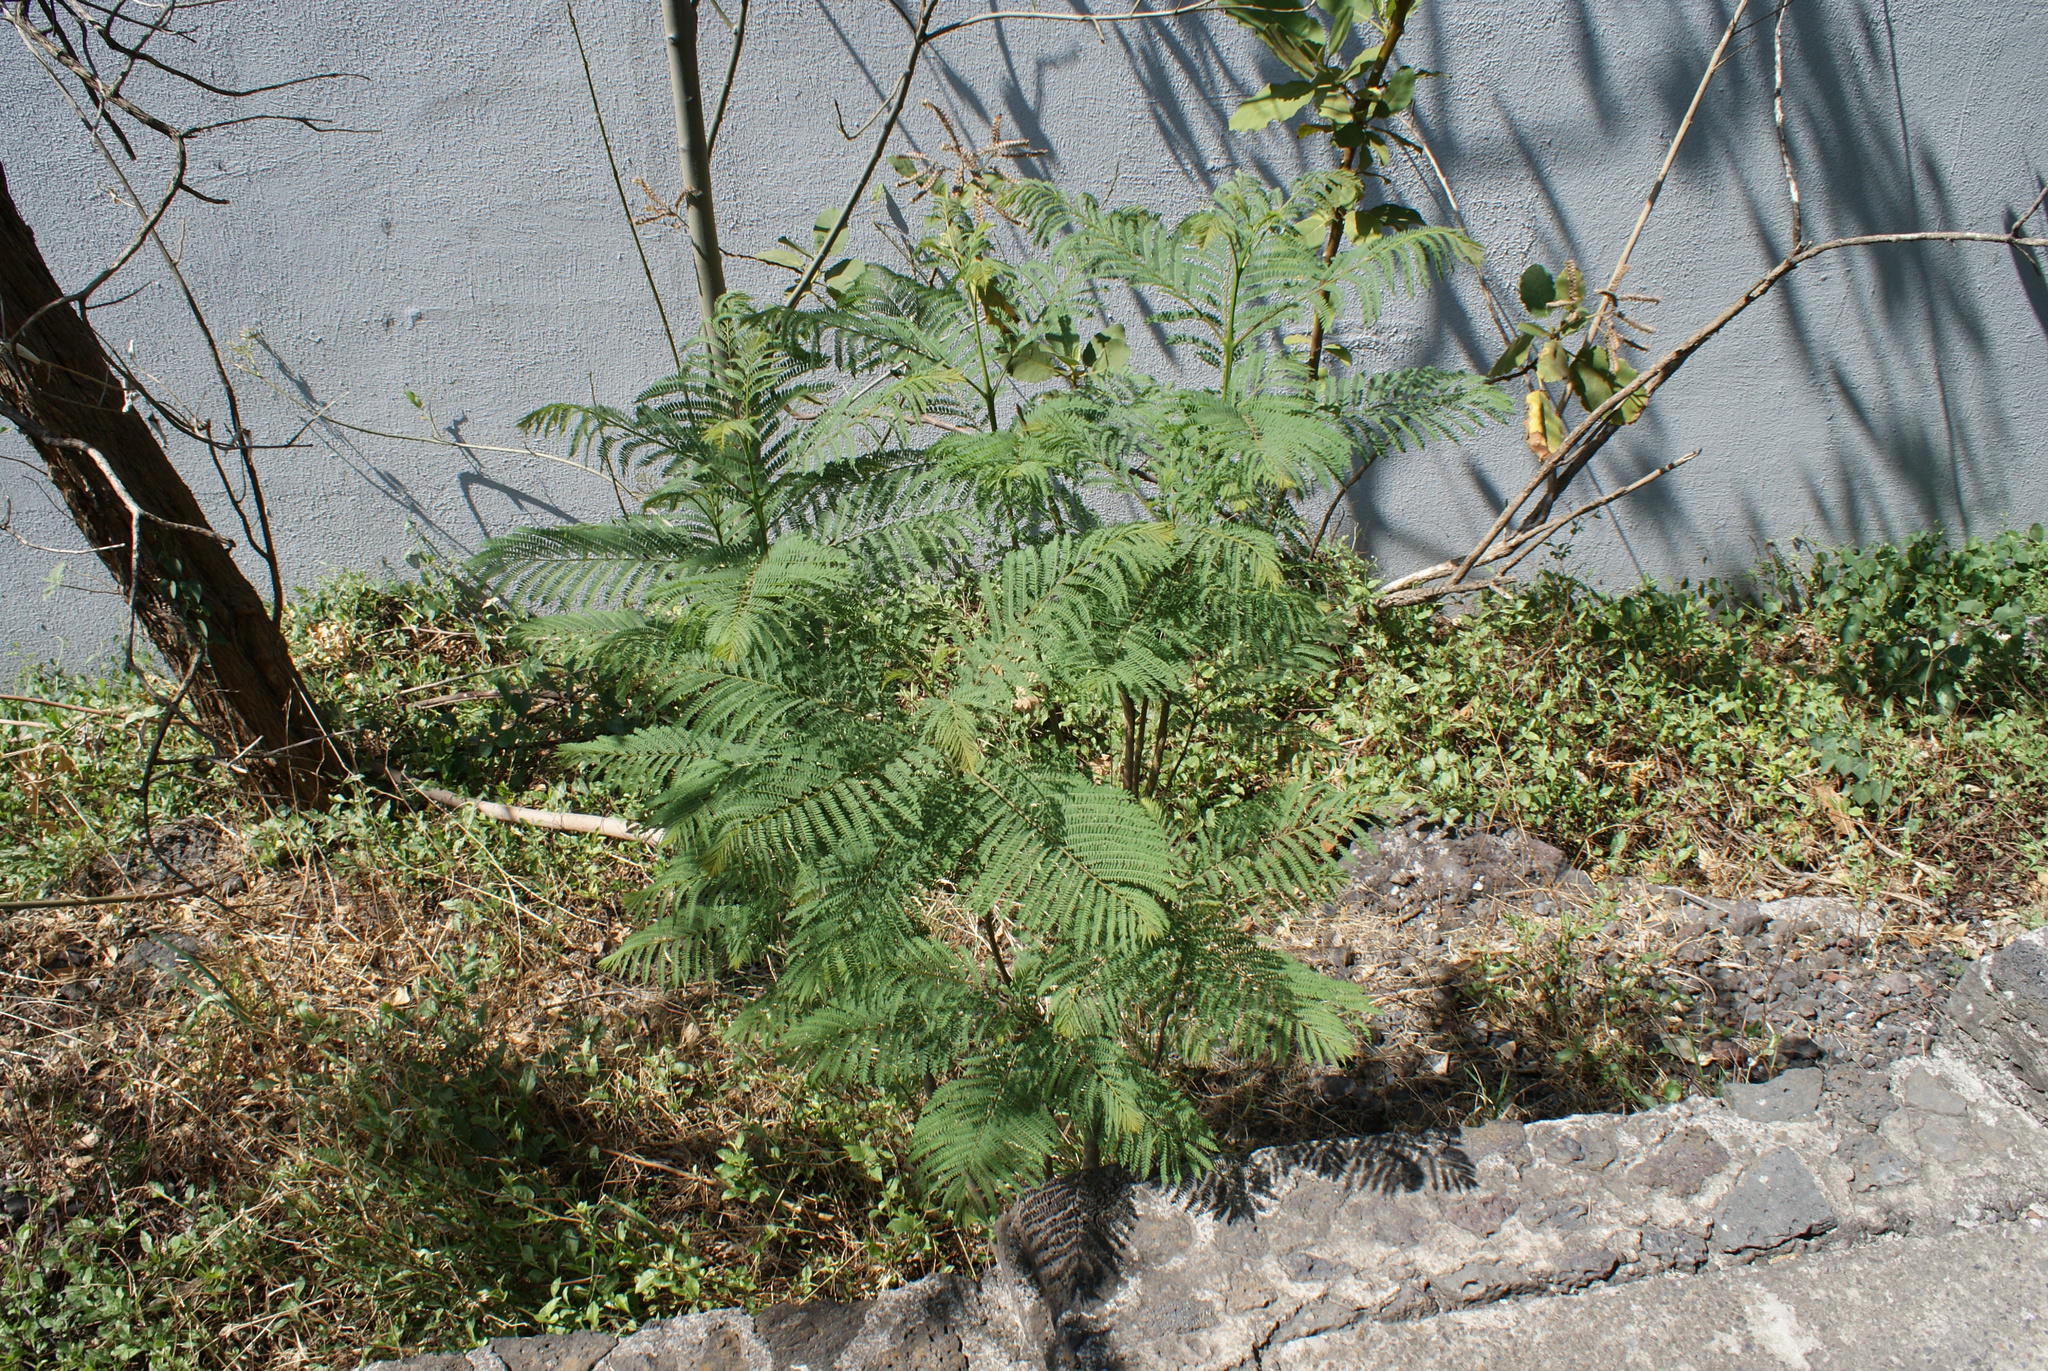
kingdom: Plantae
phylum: Tracheophyta
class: Magnoliopsida
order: Lamiales
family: Bignoniaceae
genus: Jacaranda
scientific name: Jacaranda mimosifolia
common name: Black poui
